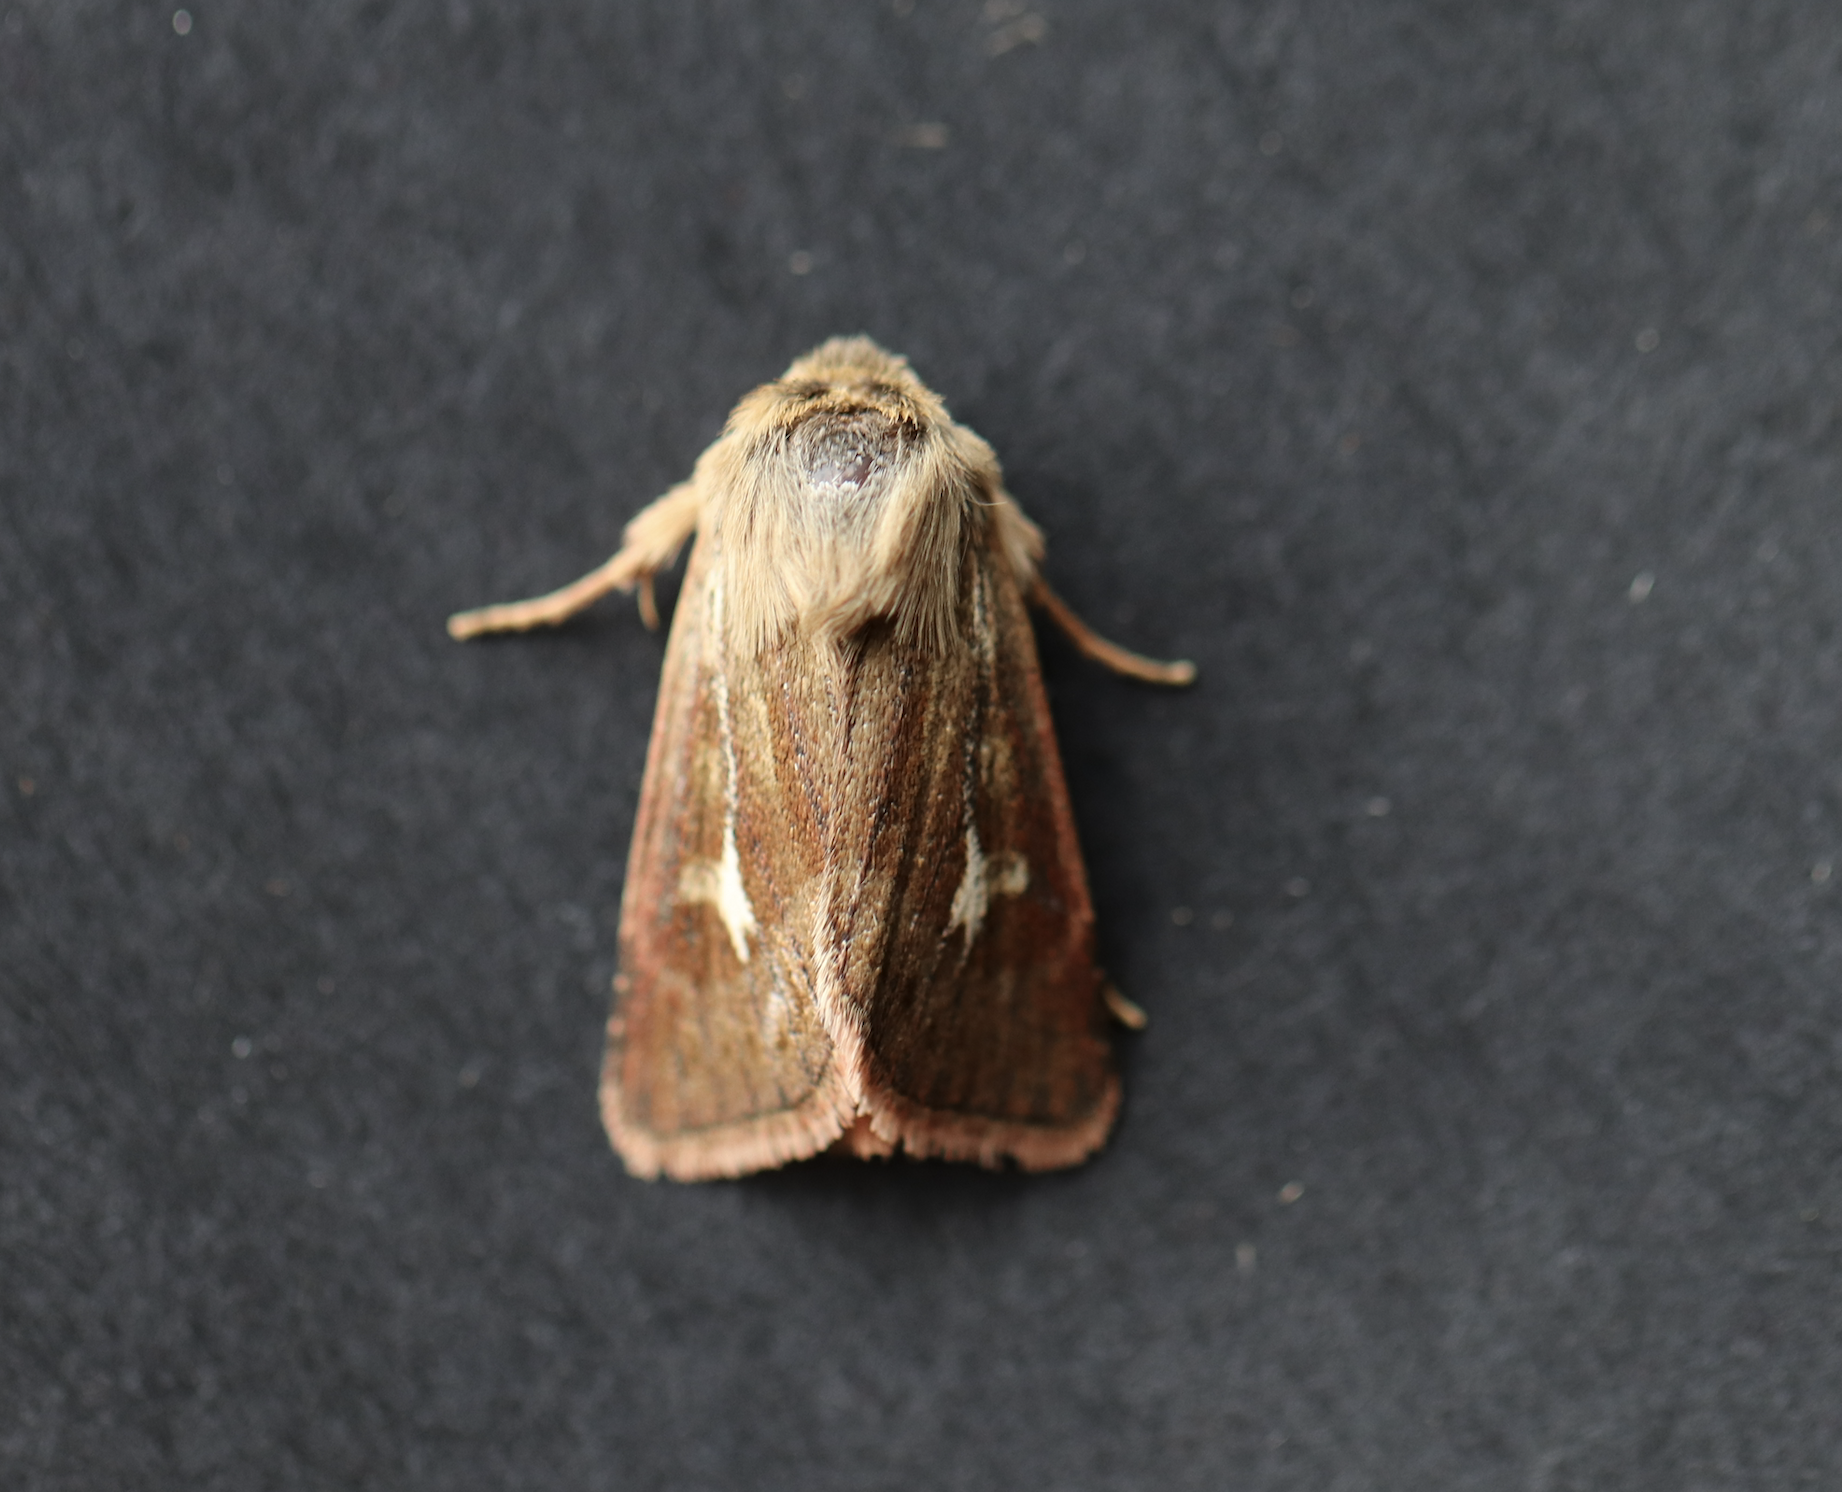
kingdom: Animalia
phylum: Arthropoda
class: Insecta
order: Lepidoptera
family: Noctuidae
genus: Cerapteryx
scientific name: Cerapteryx graminis
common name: Antler moth
